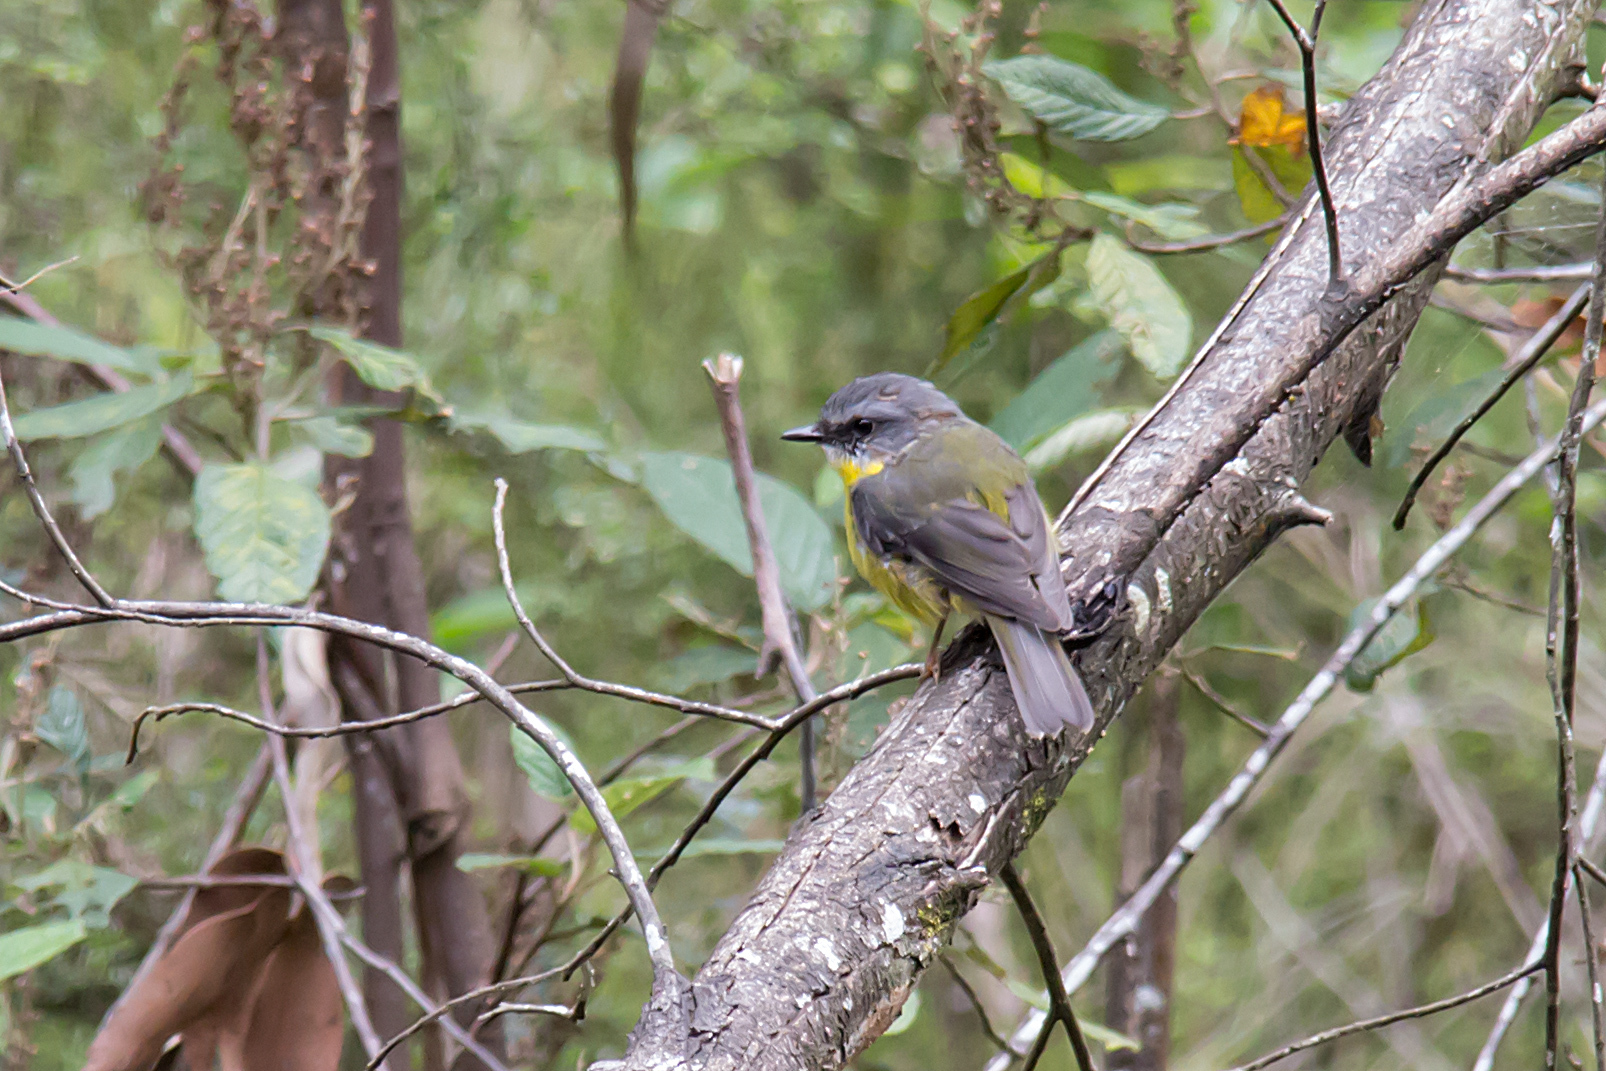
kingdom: Animalia
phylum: Chordata
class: Aves
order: Passeriformes
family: Petroicidae
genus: Eopsaltria
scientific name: Eopsaltria australis
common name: Eastern yellow robin
